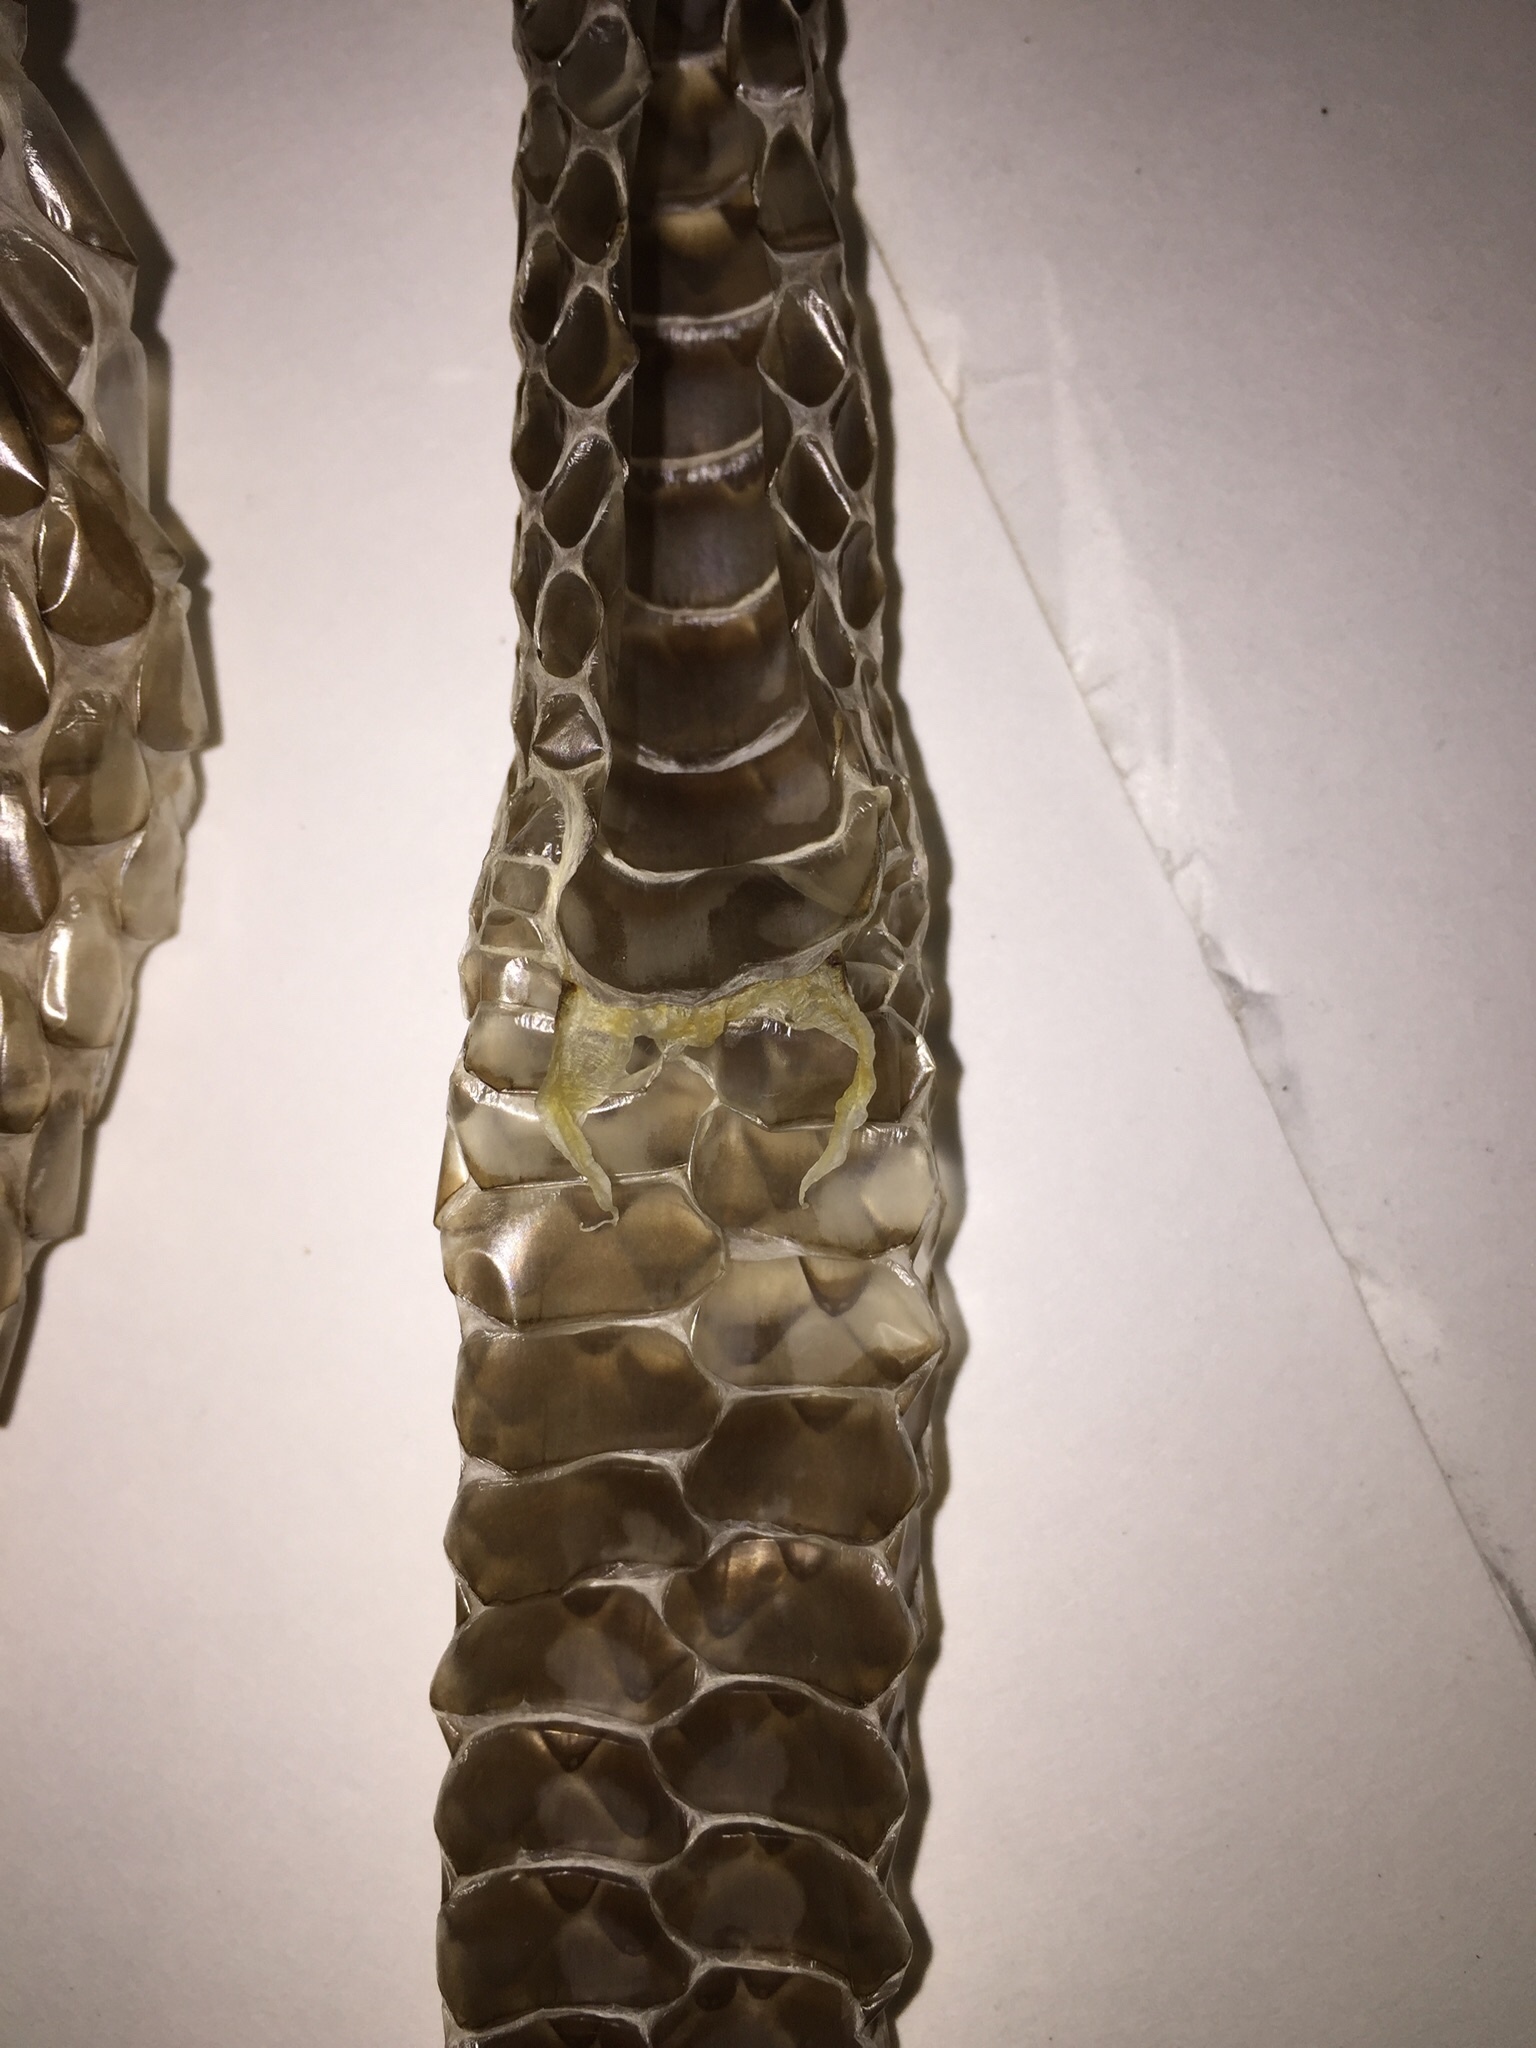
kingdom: Animalia
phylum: Chordata
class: Squamata
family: Colubridae
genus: Spilotes
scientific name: Spilotes pullatus
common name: Chicken snake
